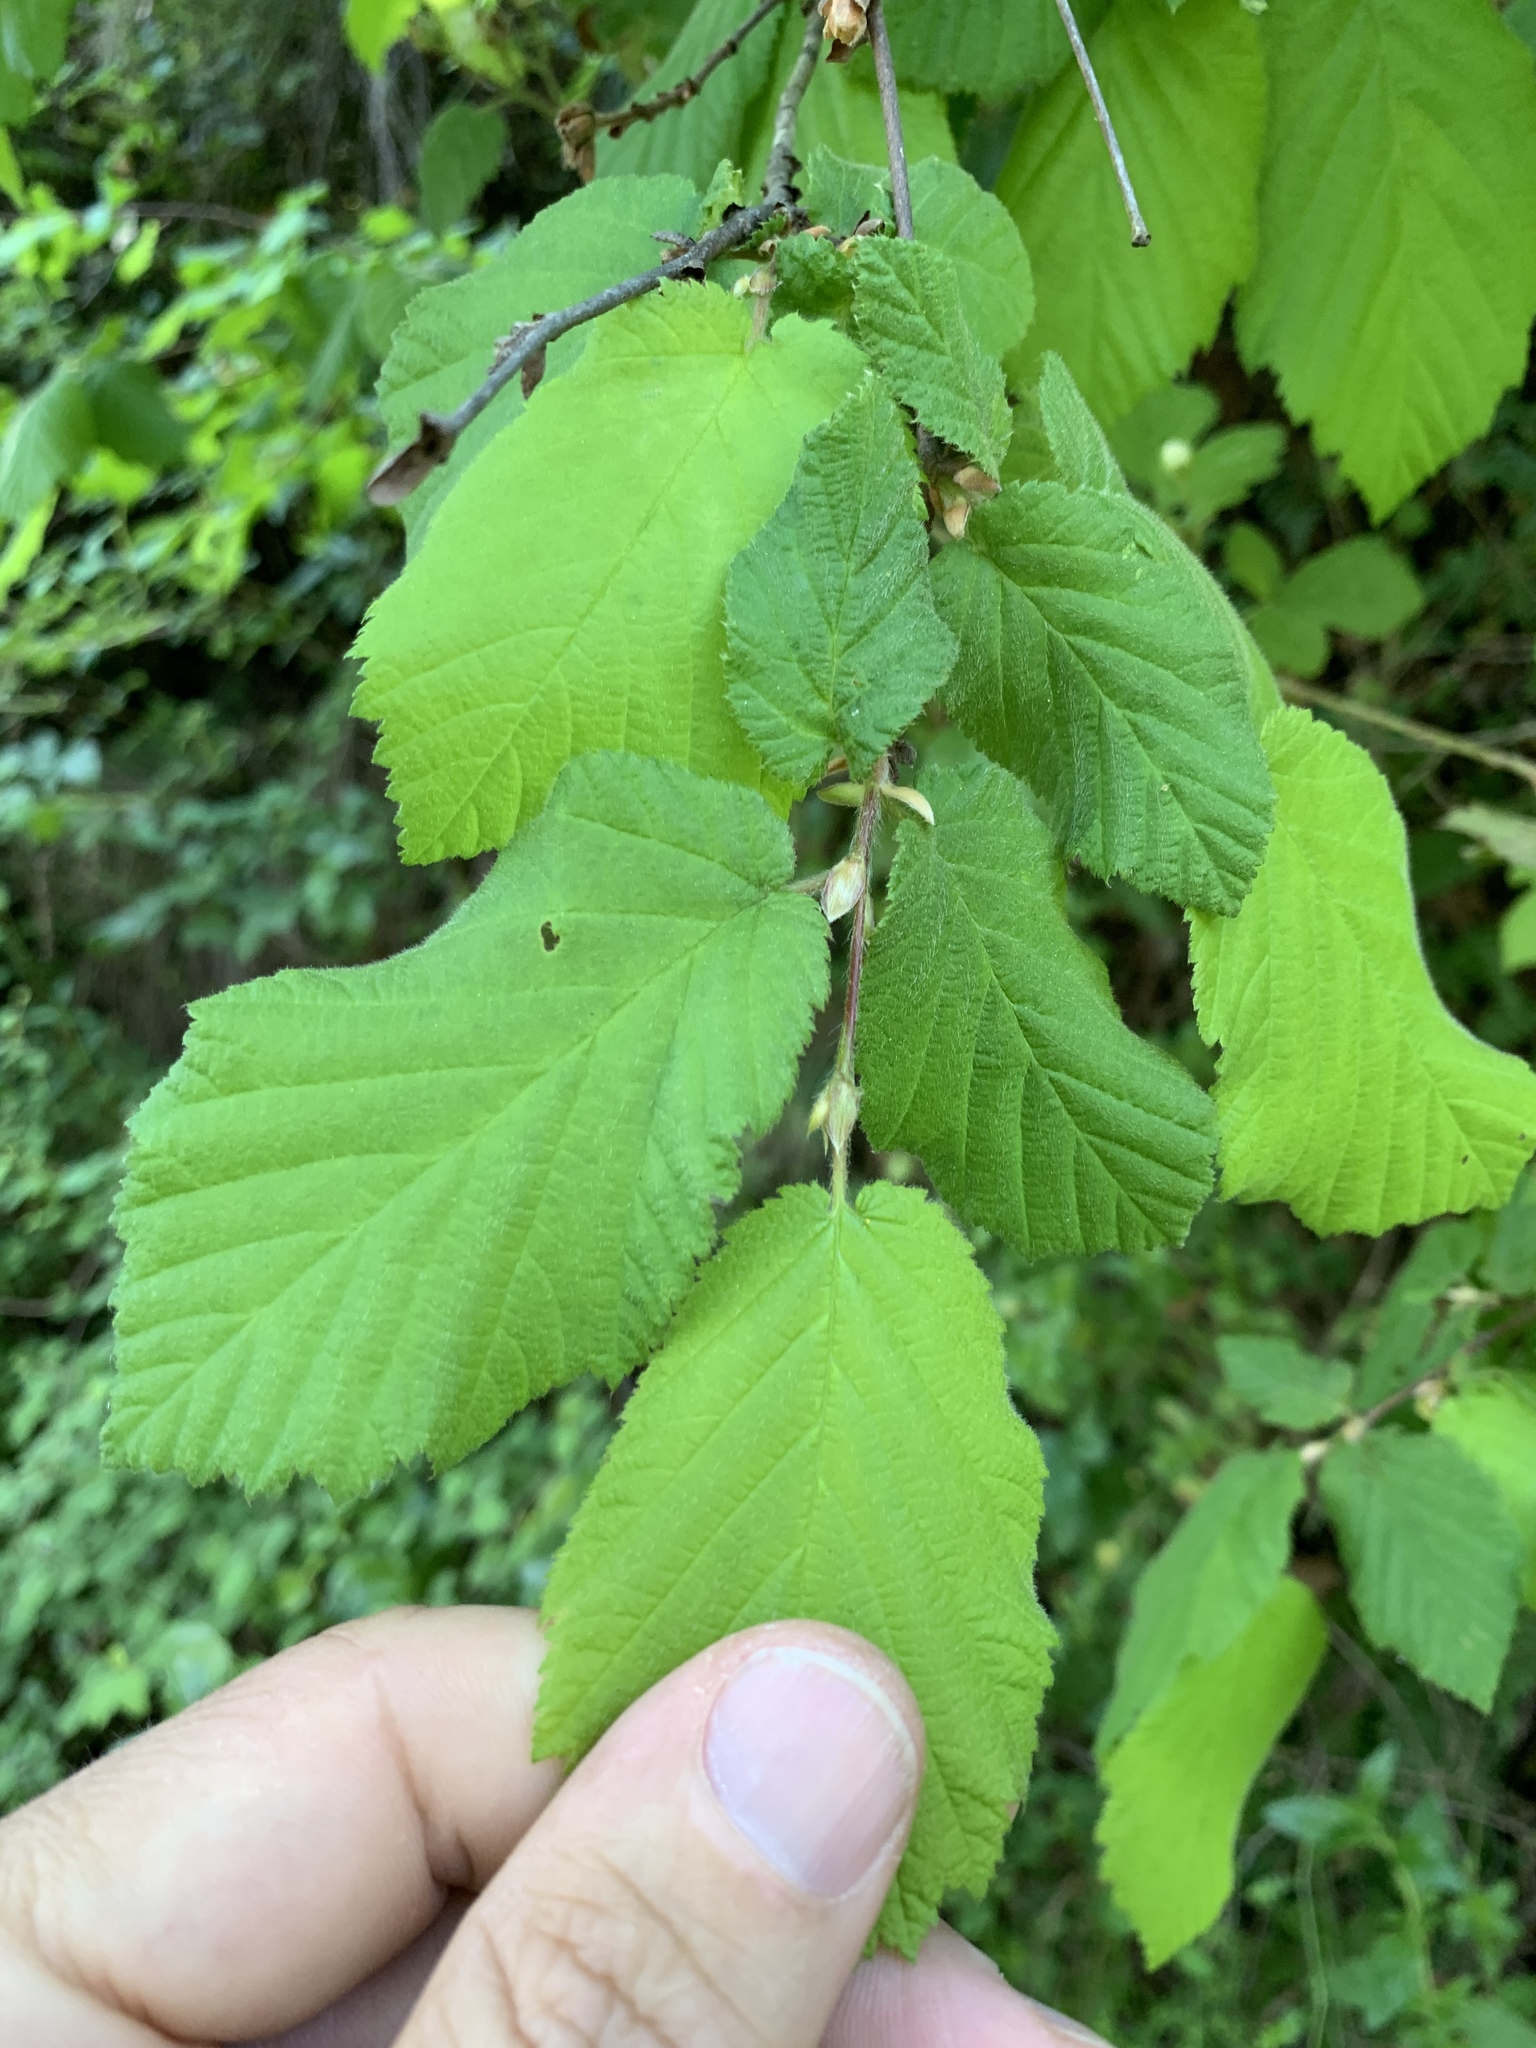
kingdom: Plantae
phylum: Tracheophyta
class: Magnoliopsida
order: Fagales
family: Betulaceae
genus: Corylus
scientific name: Corylus cornuta
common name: Beaked hazel
